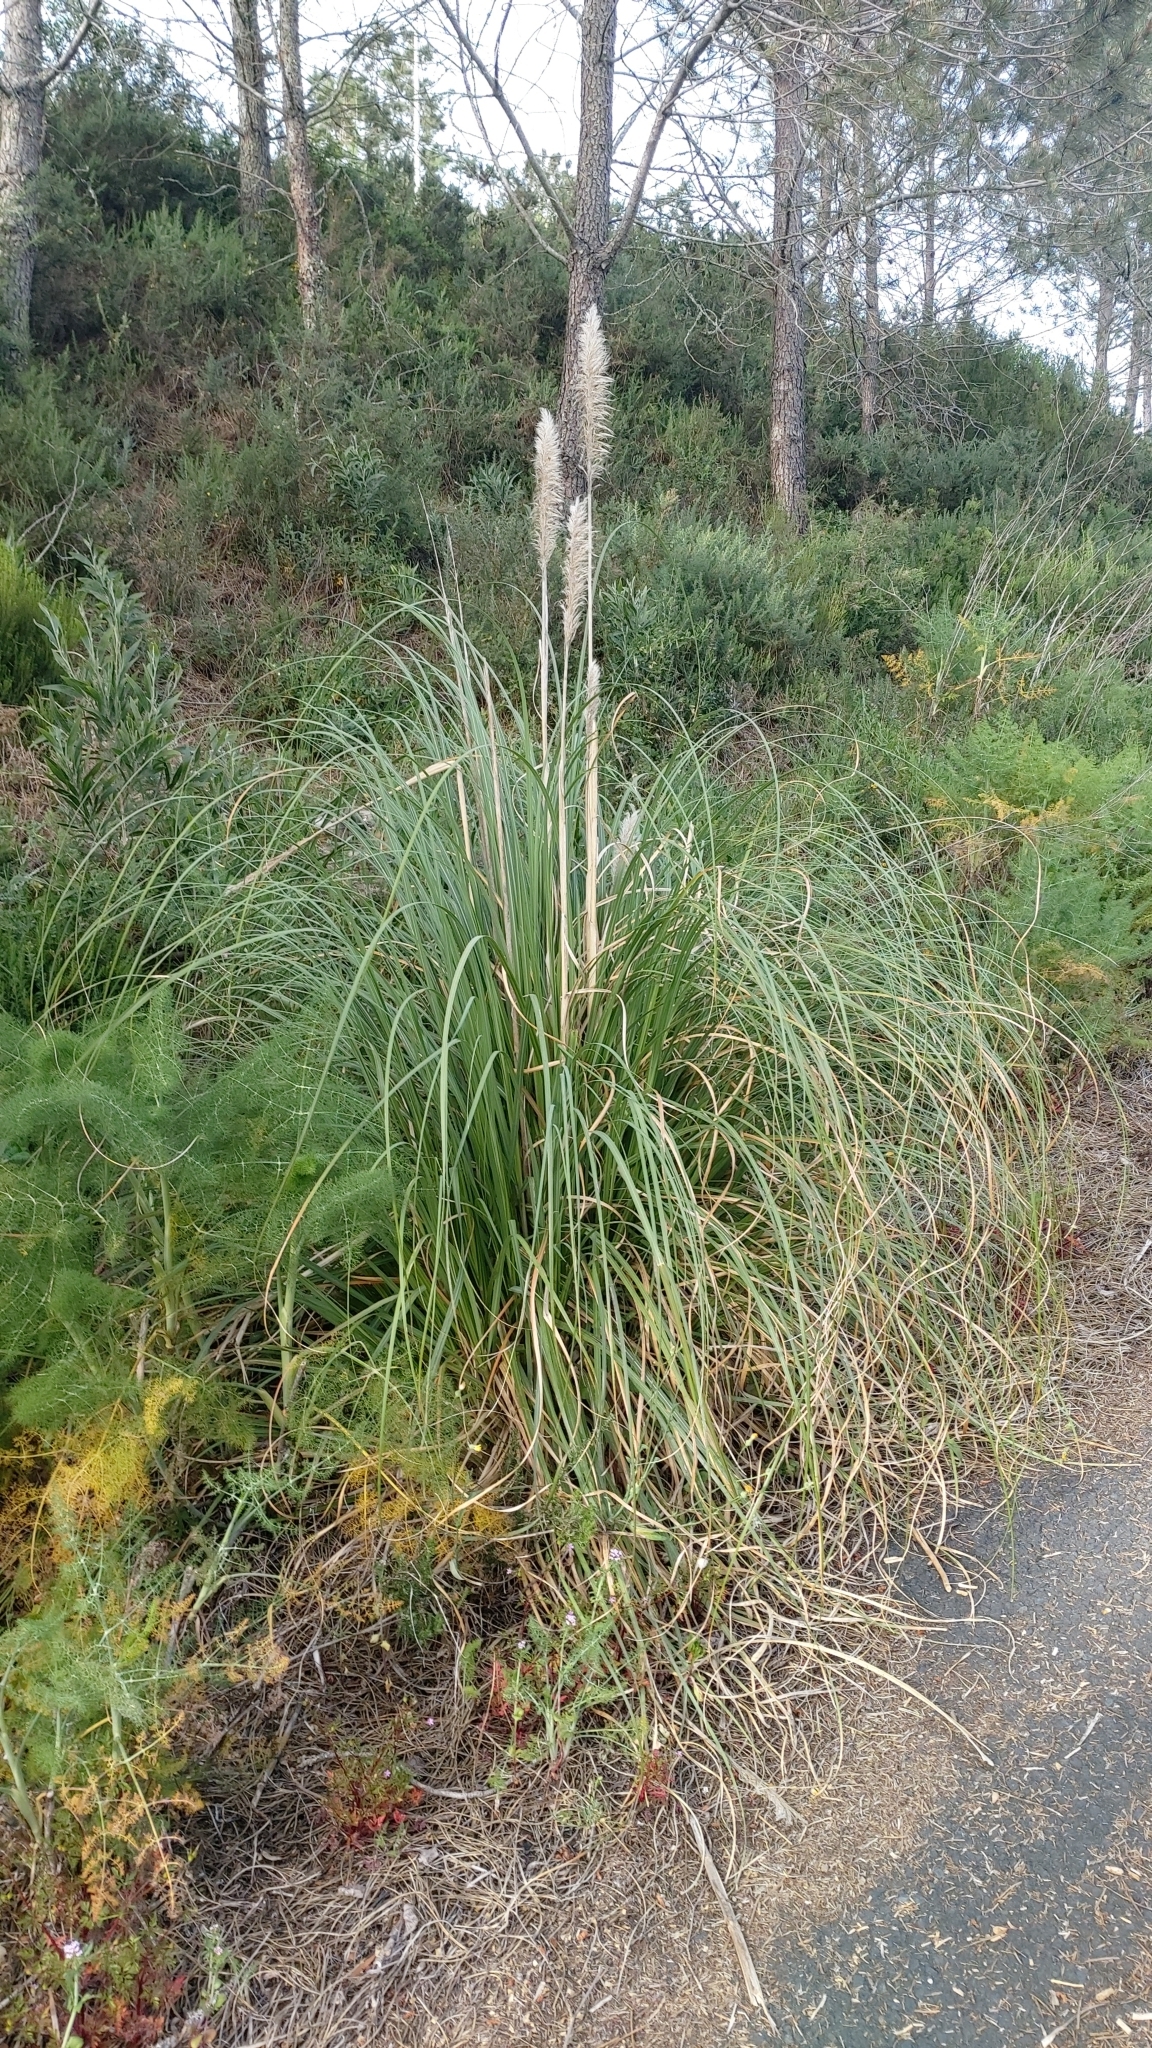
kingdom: Plantae
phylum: Tracheophyta
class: Liliopsida
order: Poales
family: Poaceae
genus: Cortaderia
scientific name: Cortaderia selloana
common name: Uruguayan pampas grass
